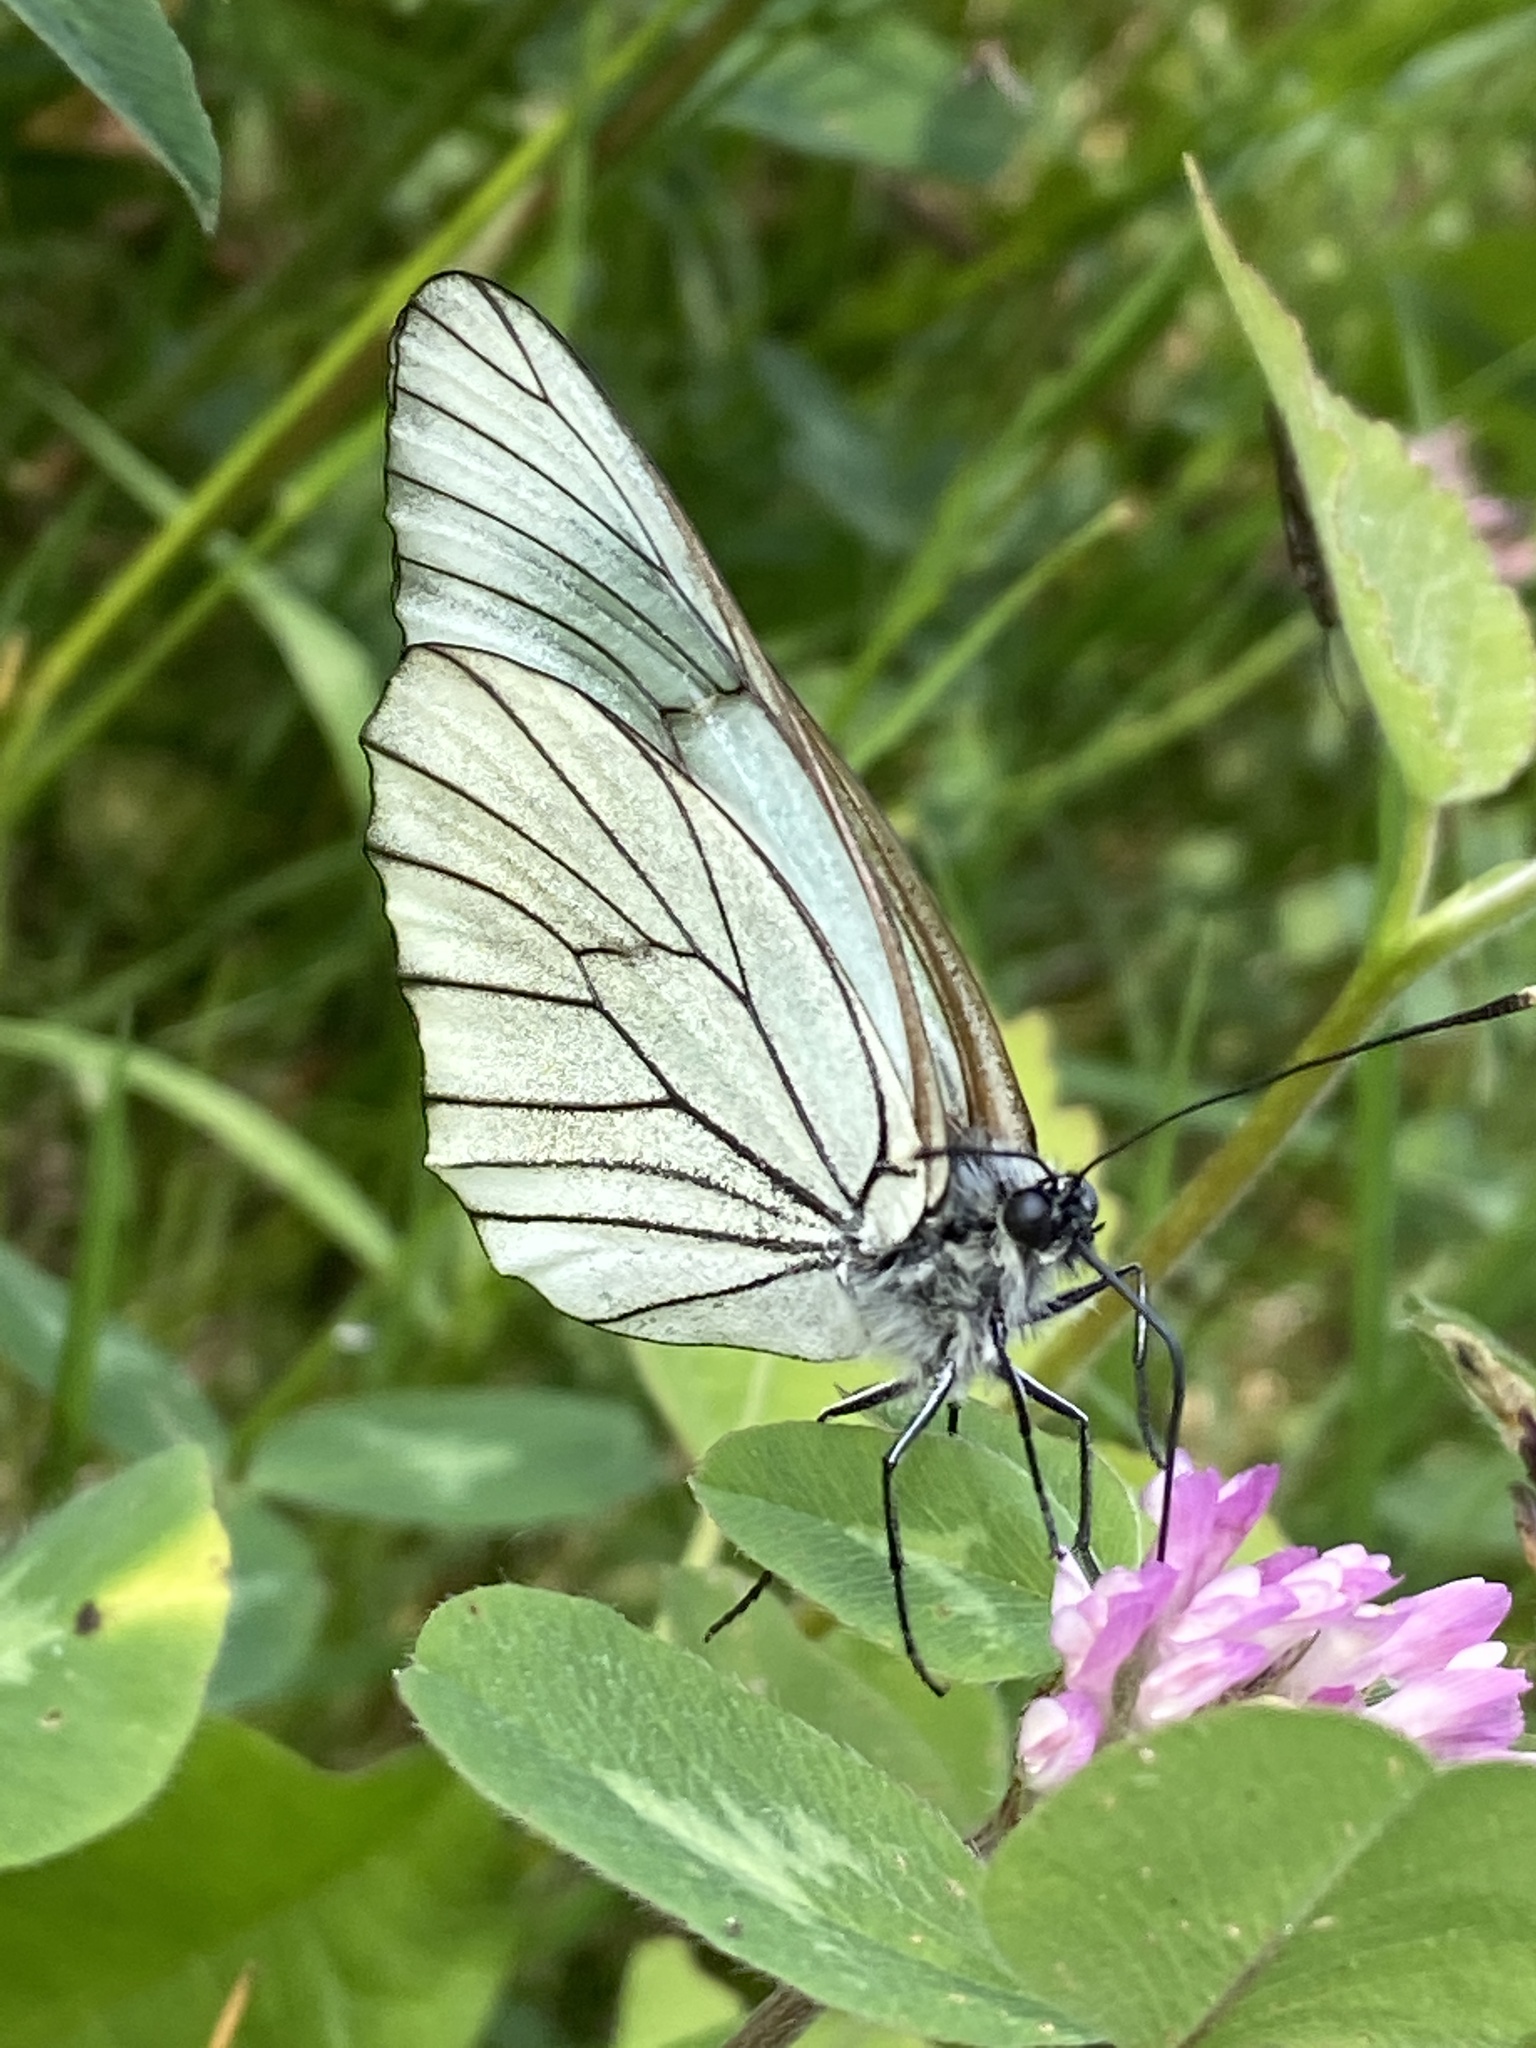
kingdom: Animalia
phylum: Arthropoda
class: Insecta
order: Lepidoptera
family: Pieridae
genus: Aporia
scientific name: Aporia crataegi
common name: Black-veined white
